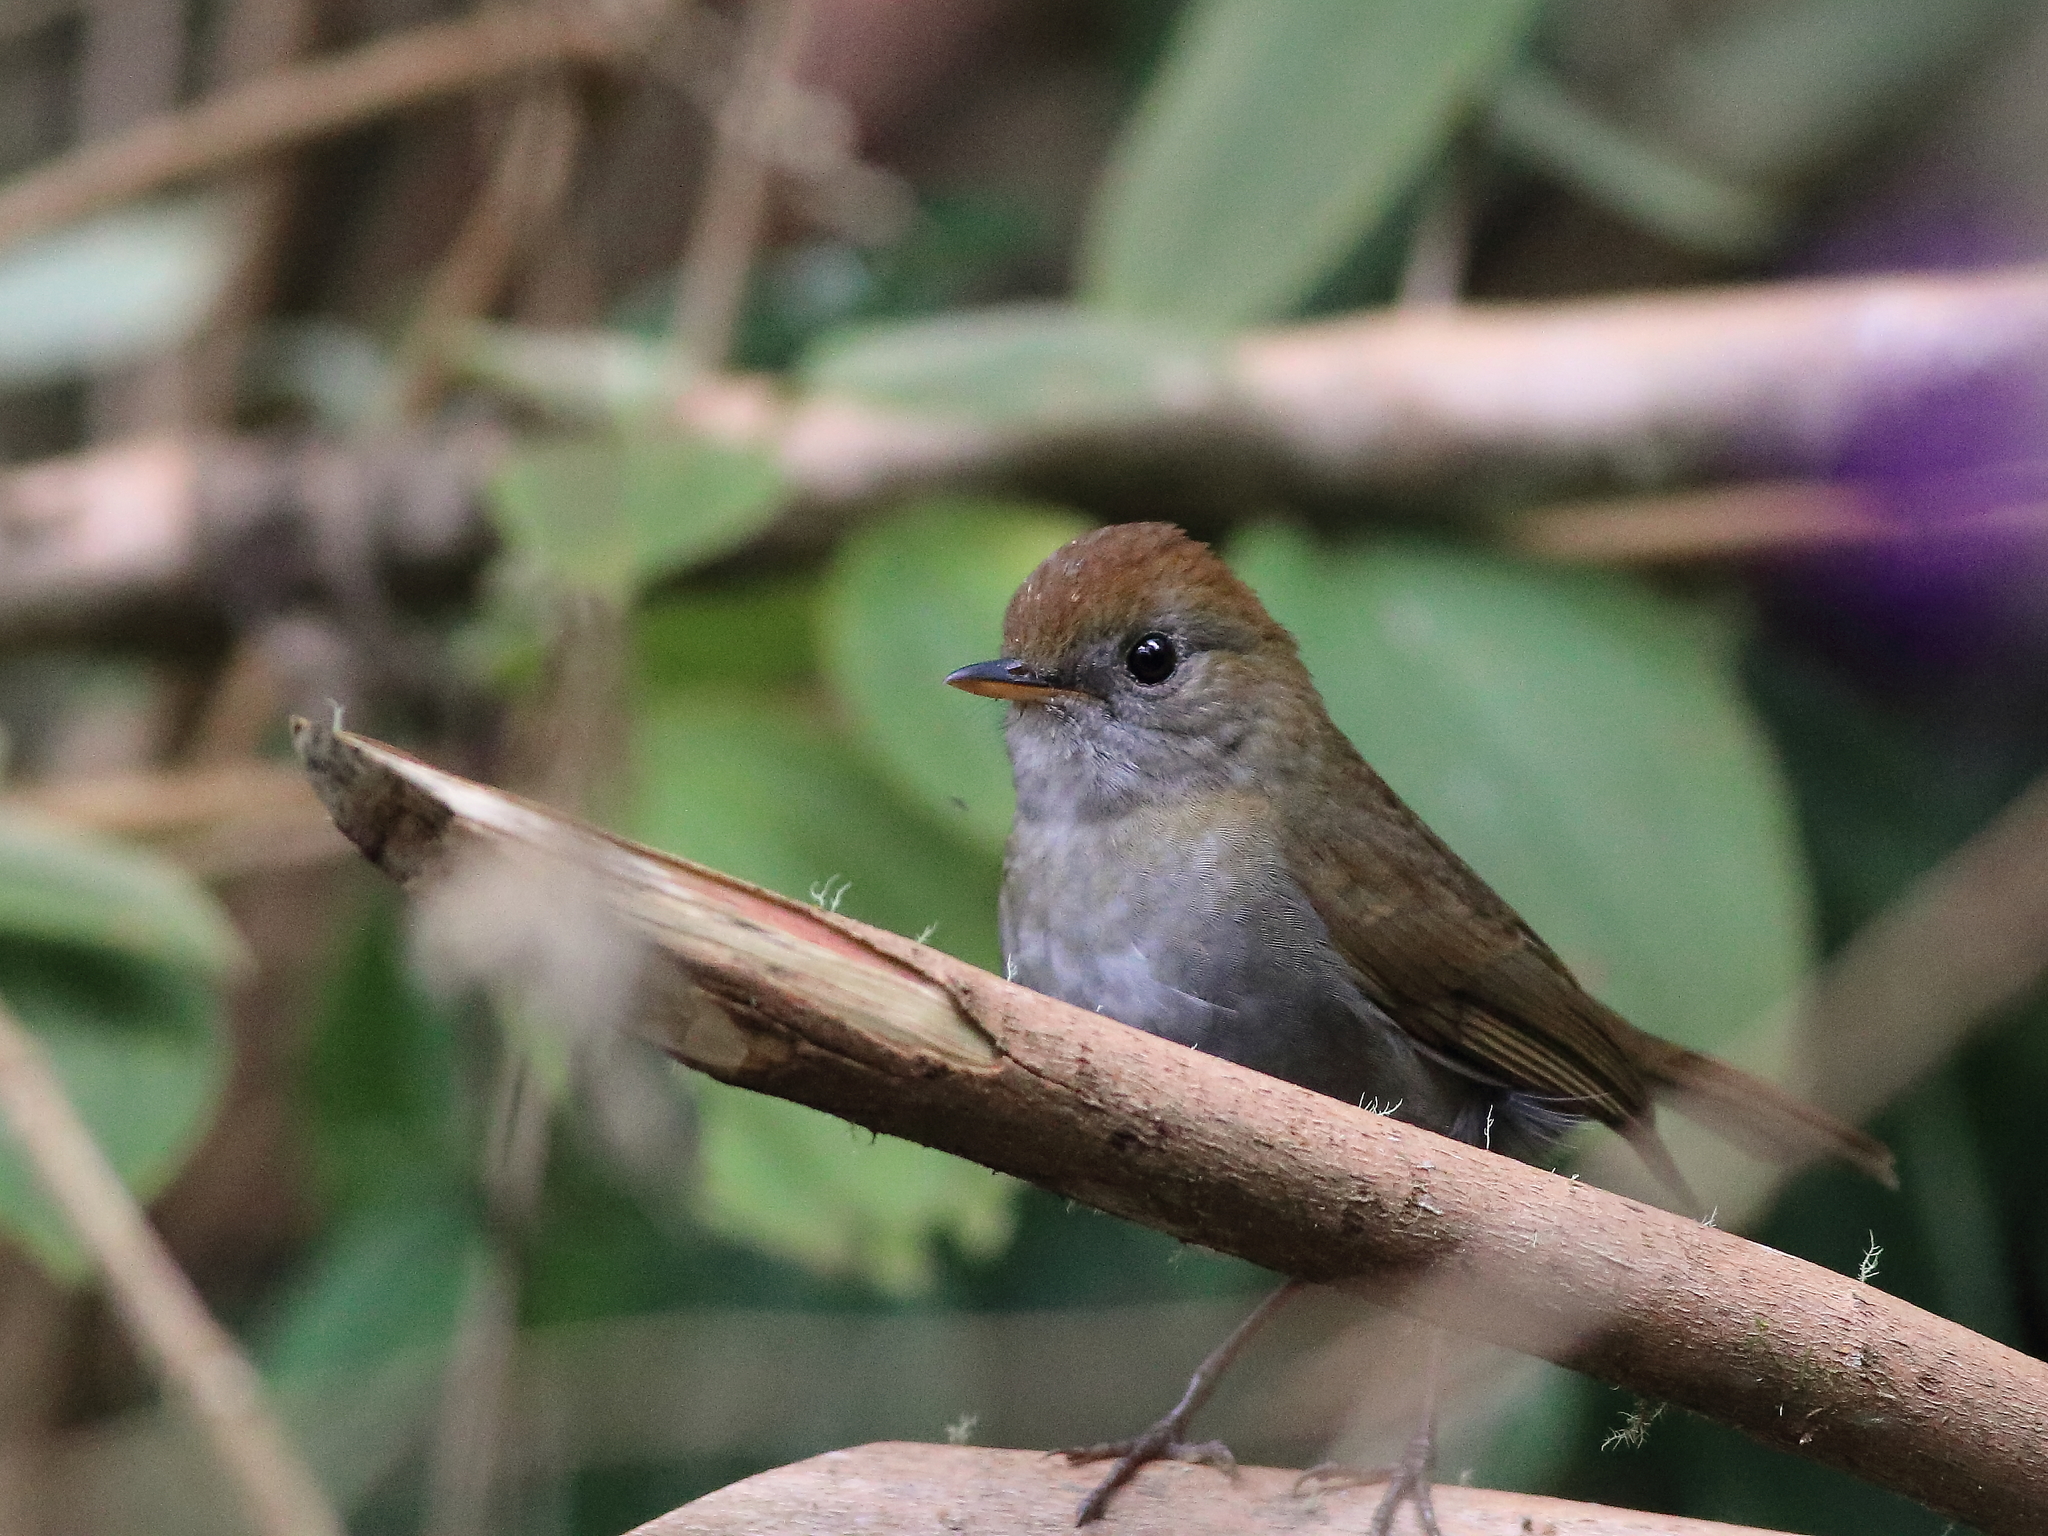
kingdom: Animalia
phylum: Chordata
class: Aves
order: Passeriformes
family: Turdidae
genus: Catharus
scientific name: Catharus frantzii
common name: Ruddy-capped nightingale-thrush
